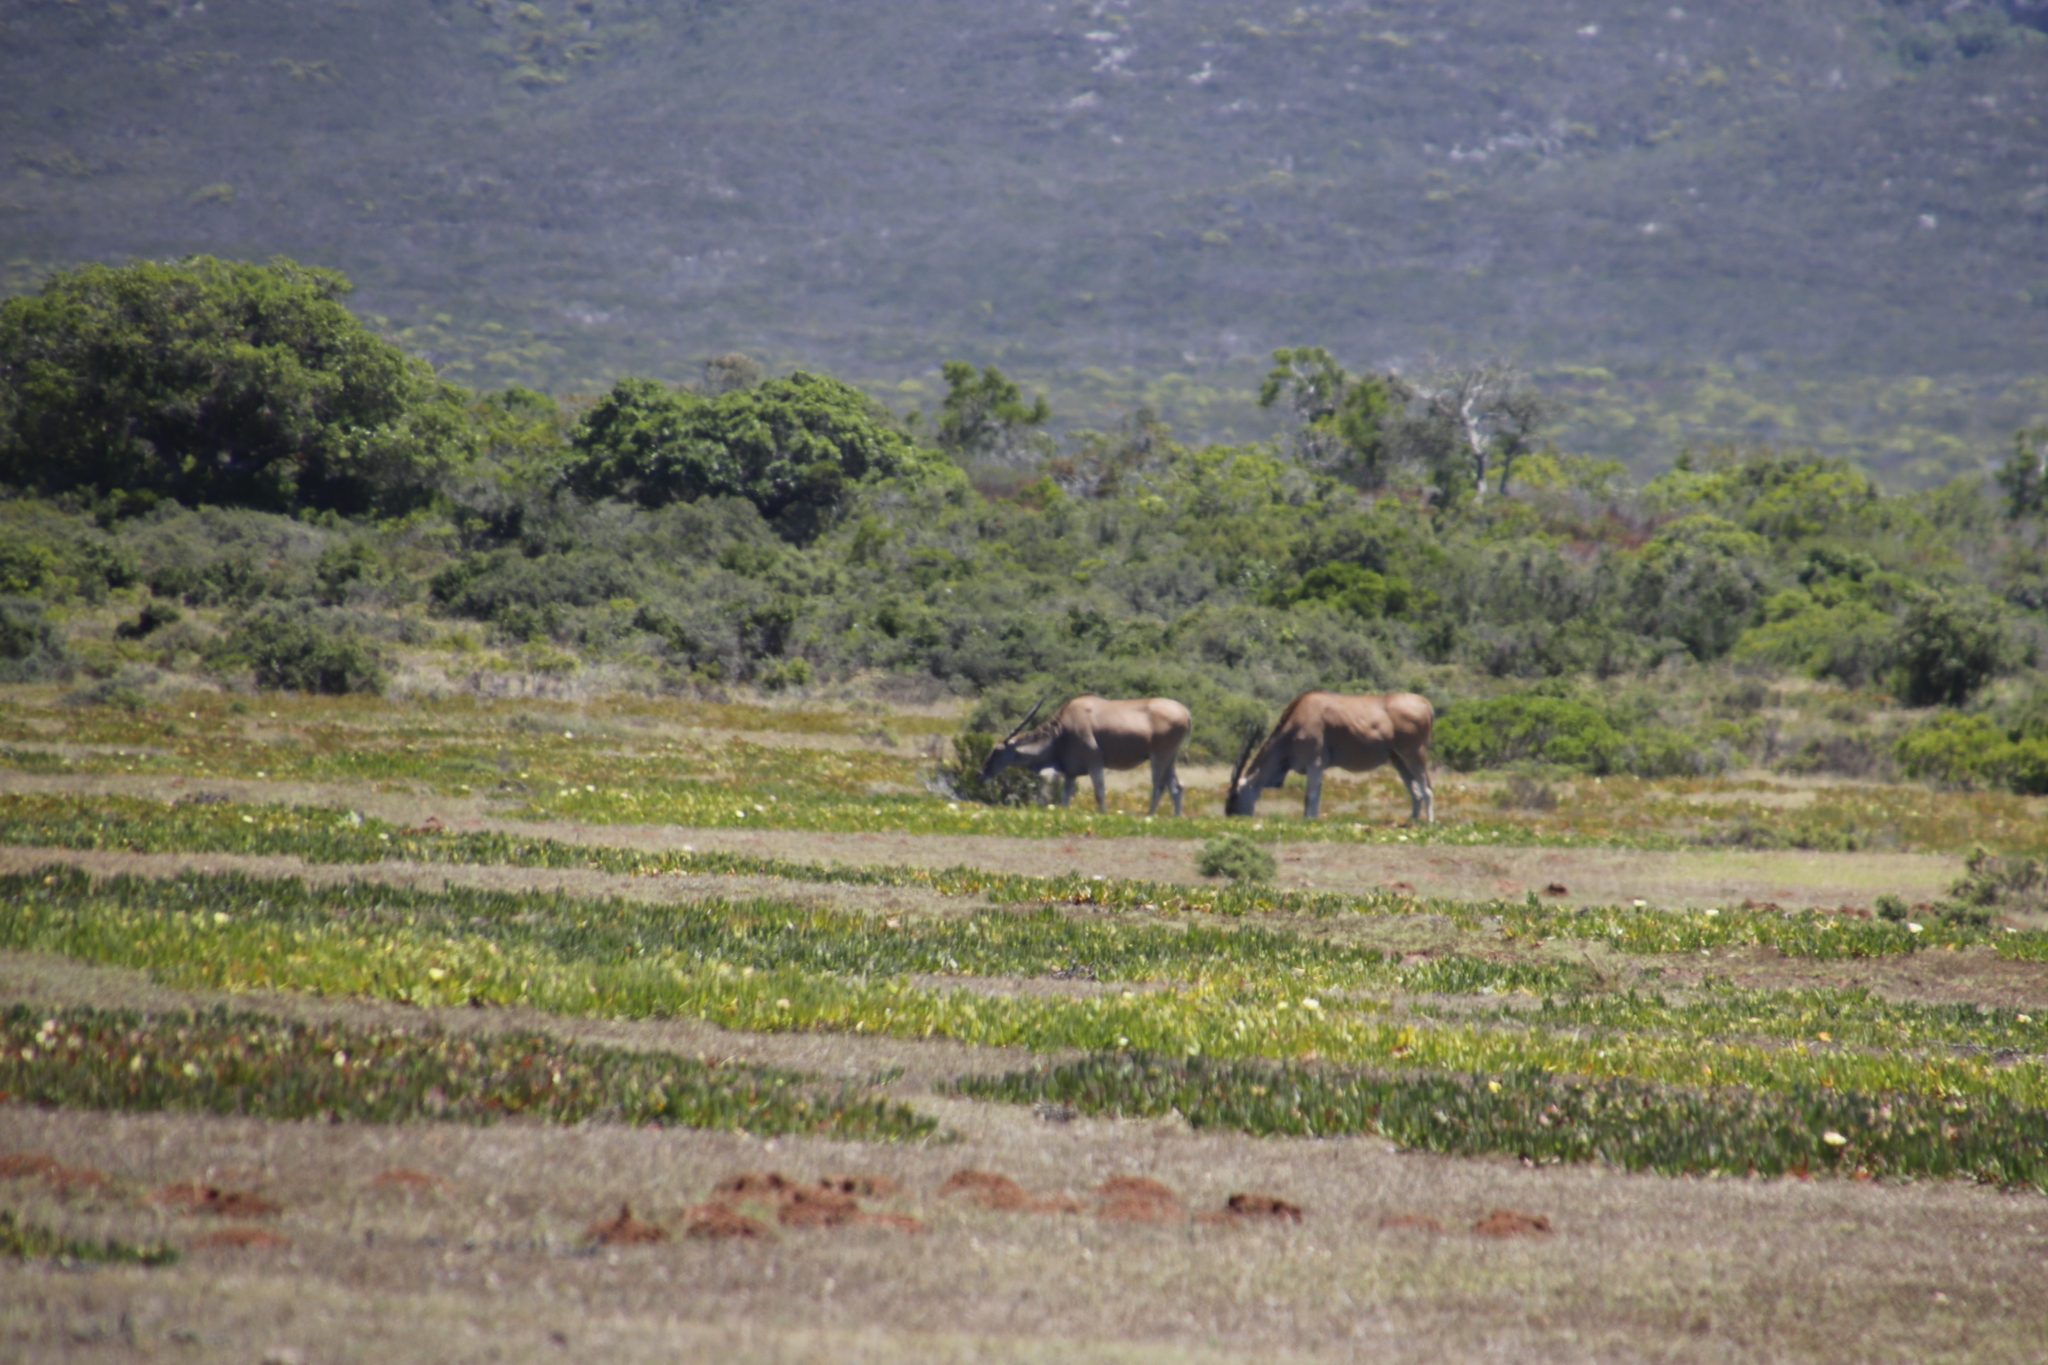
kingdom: Animalia
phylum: Chordata
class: Mammalia
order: Artiodactyla
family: Bovidae
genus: Taurotragus
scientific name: Taurotragus oryx
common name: Common eland
